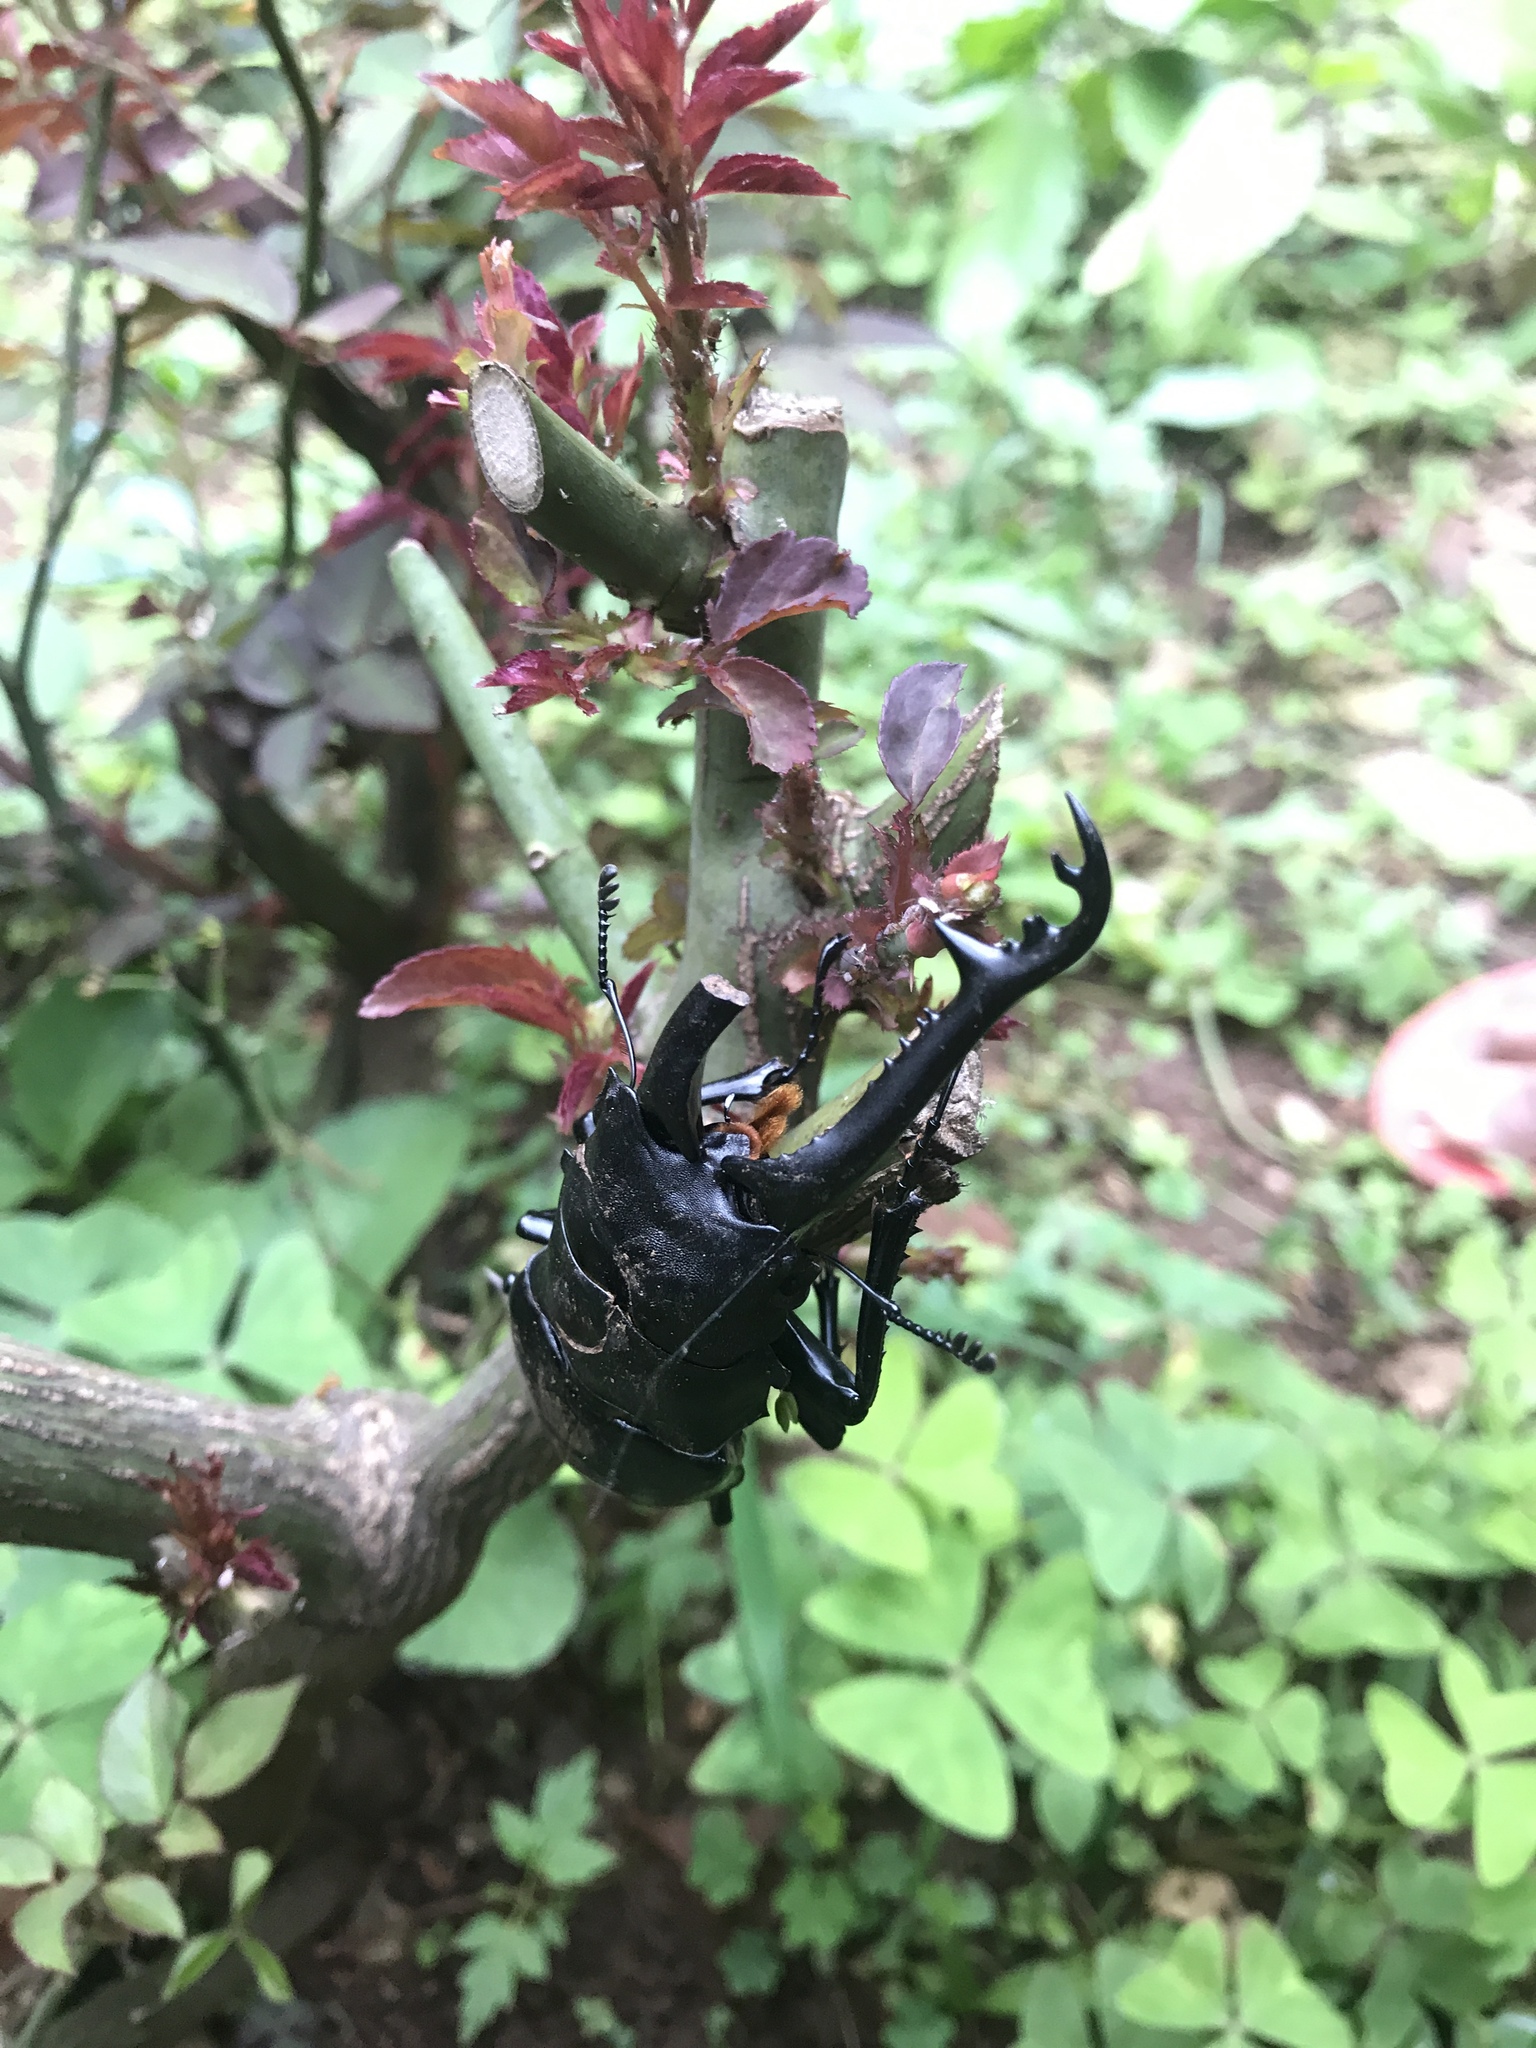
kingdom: Animalia
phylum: Arthropoda
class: Insecta
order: Coleoptera
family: Lucanidae
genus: Prosopocoilus
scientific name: Prosopocoilus girafa
